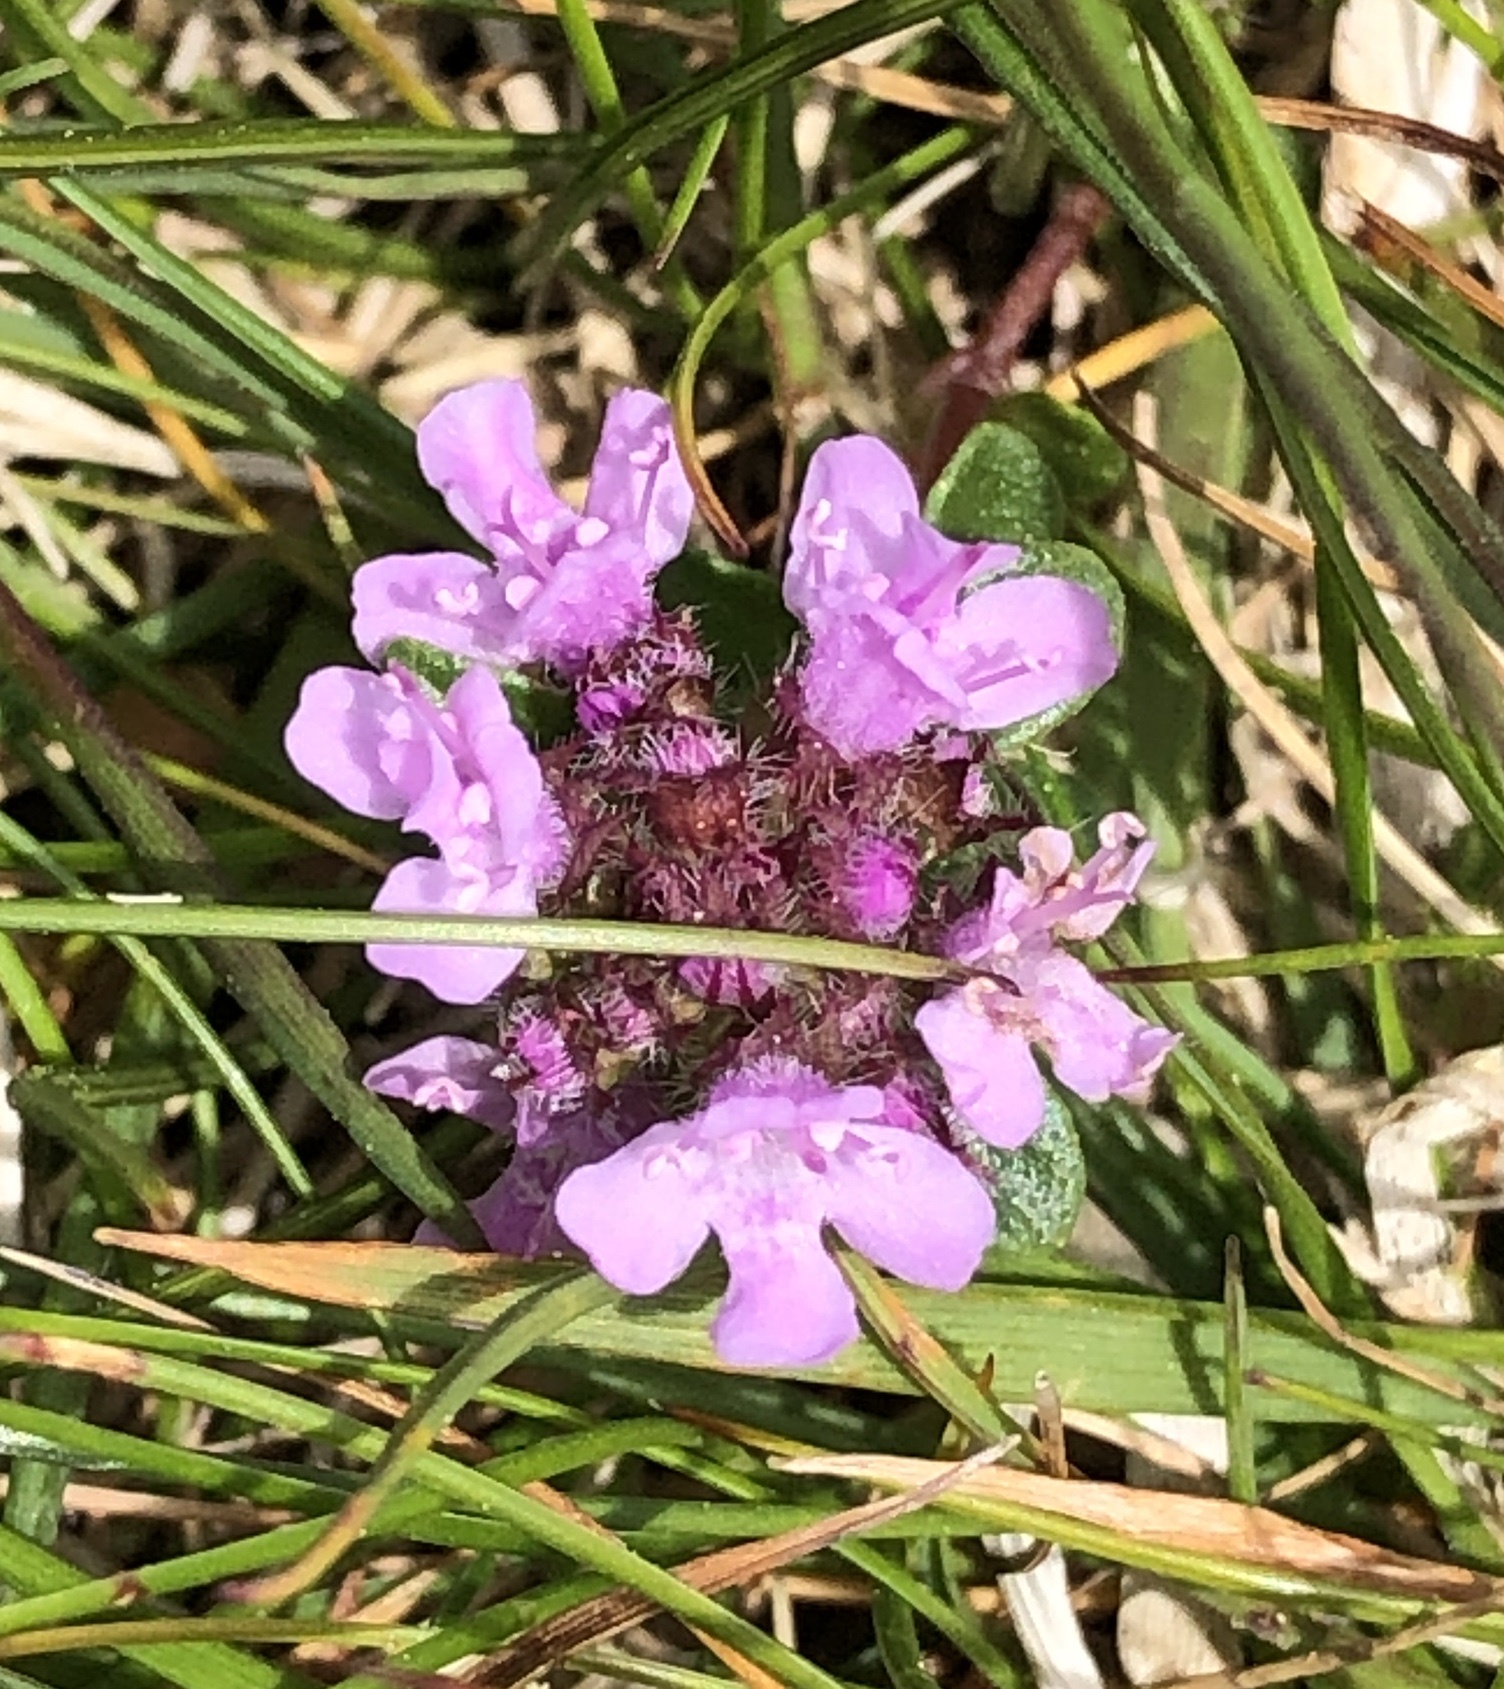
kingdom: Plantae
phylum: Tracheophyta
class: Magnoliopsida
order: Lamiales
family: Lamiaceae
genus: Thymus
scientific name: Thymus praecox
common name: Wild thyme
